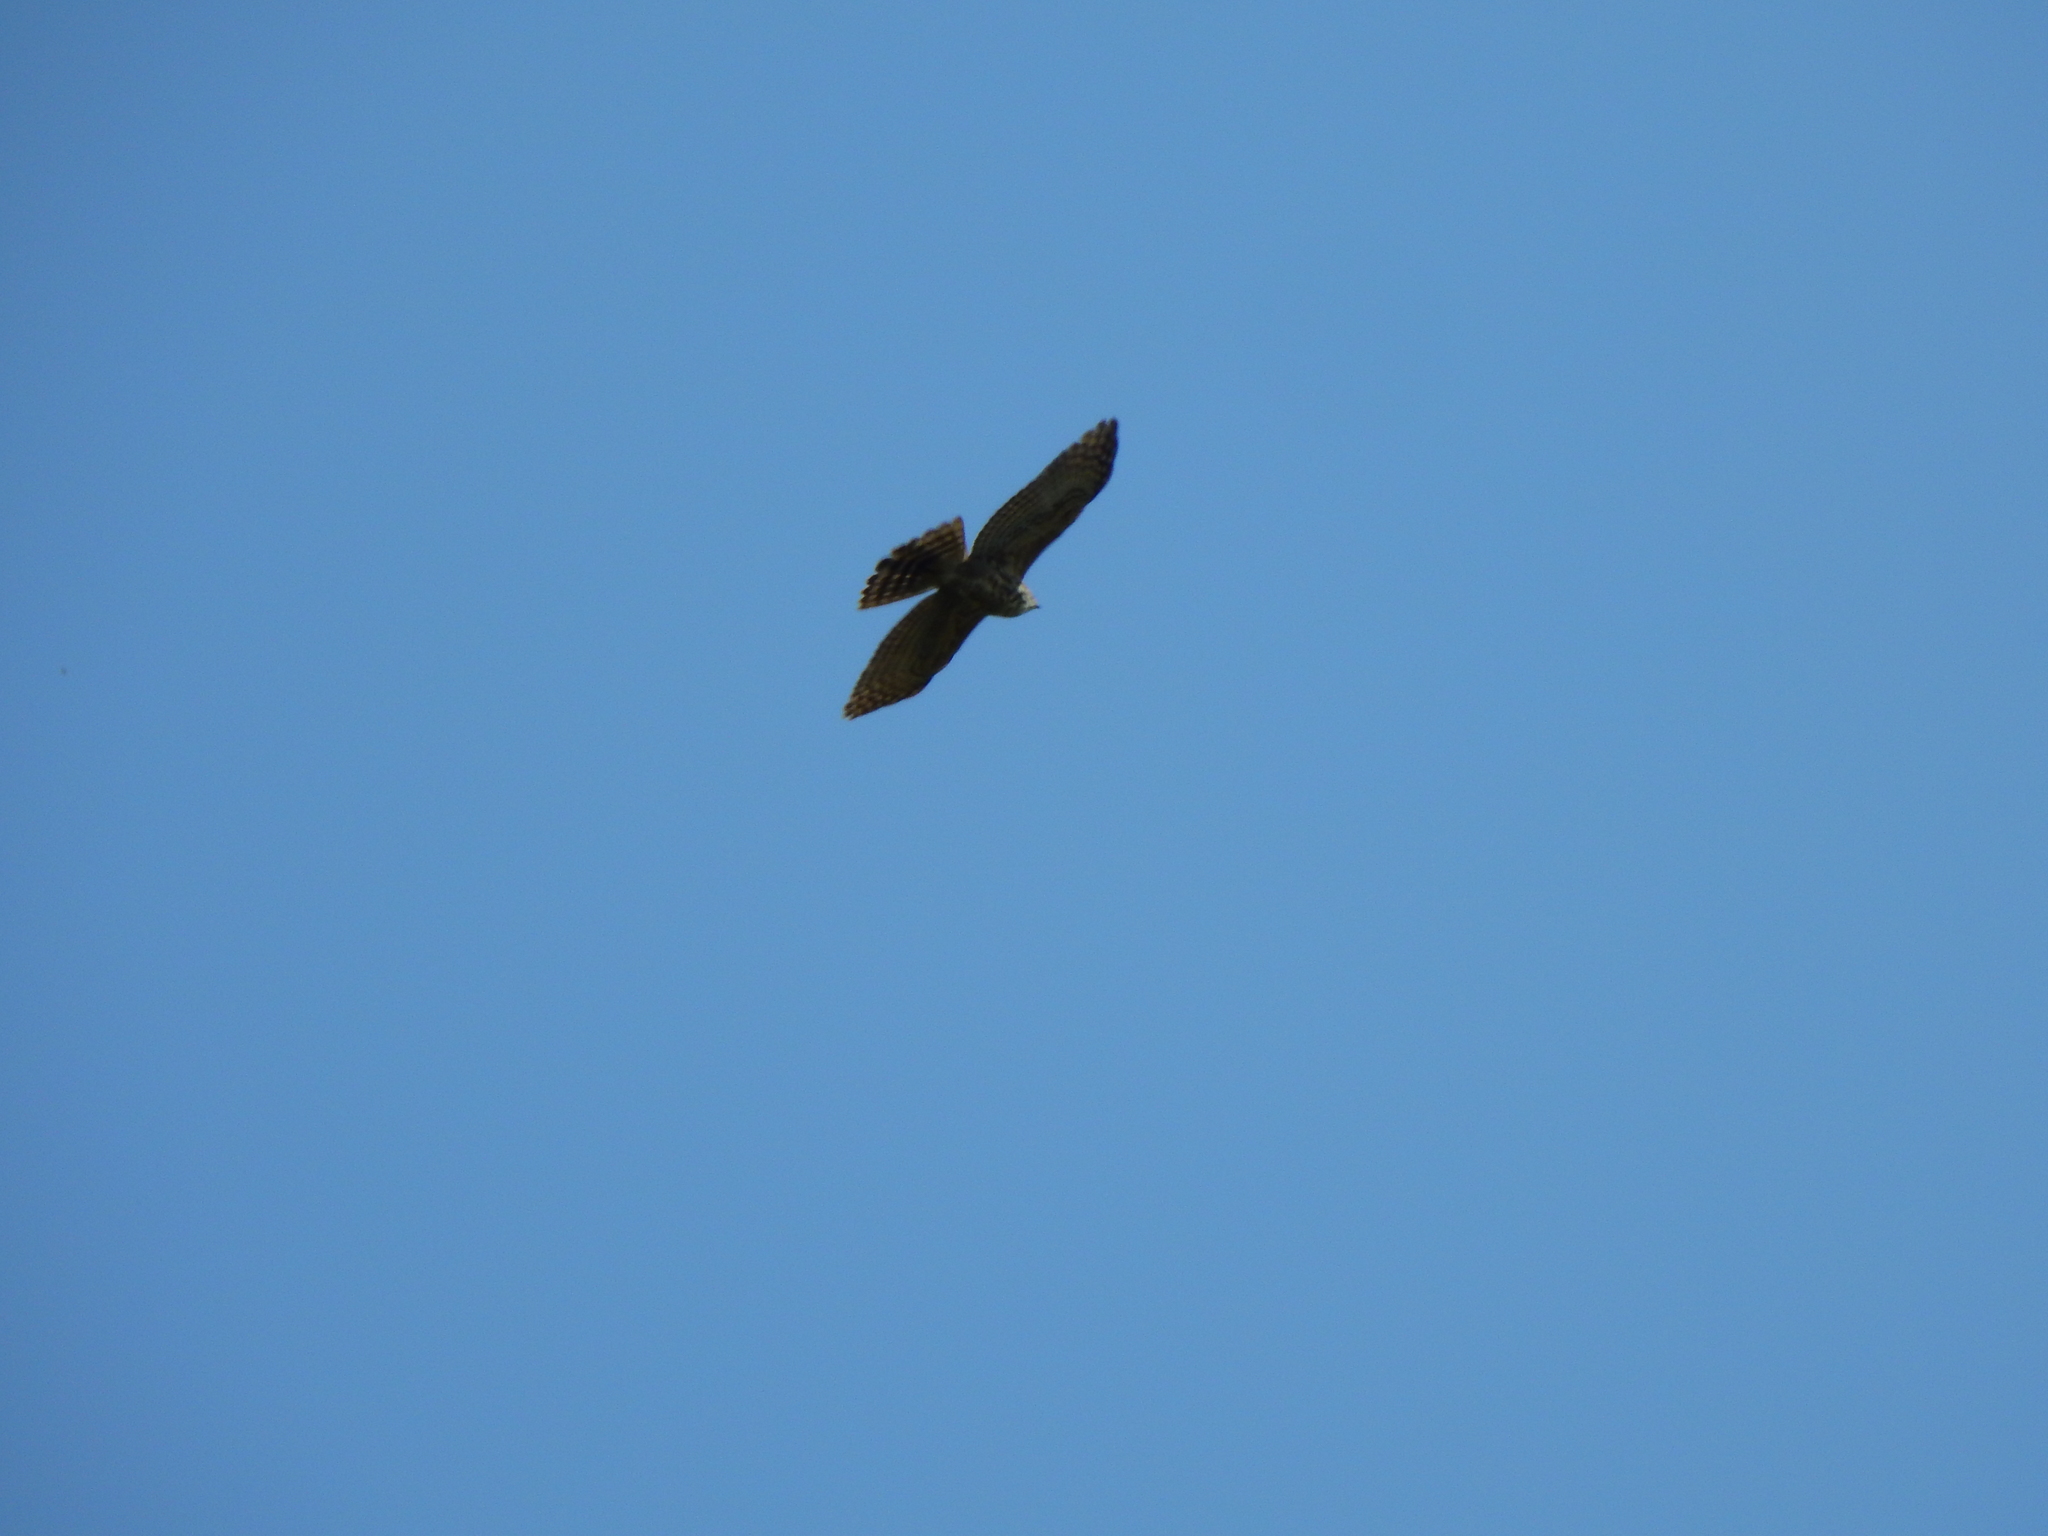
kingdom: Animalia
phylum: Chordata
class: Aves
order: Accipitriformes
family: Accipitridae
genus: Butastur
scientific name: Butastur indicus
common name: Grey-faced buzzard
